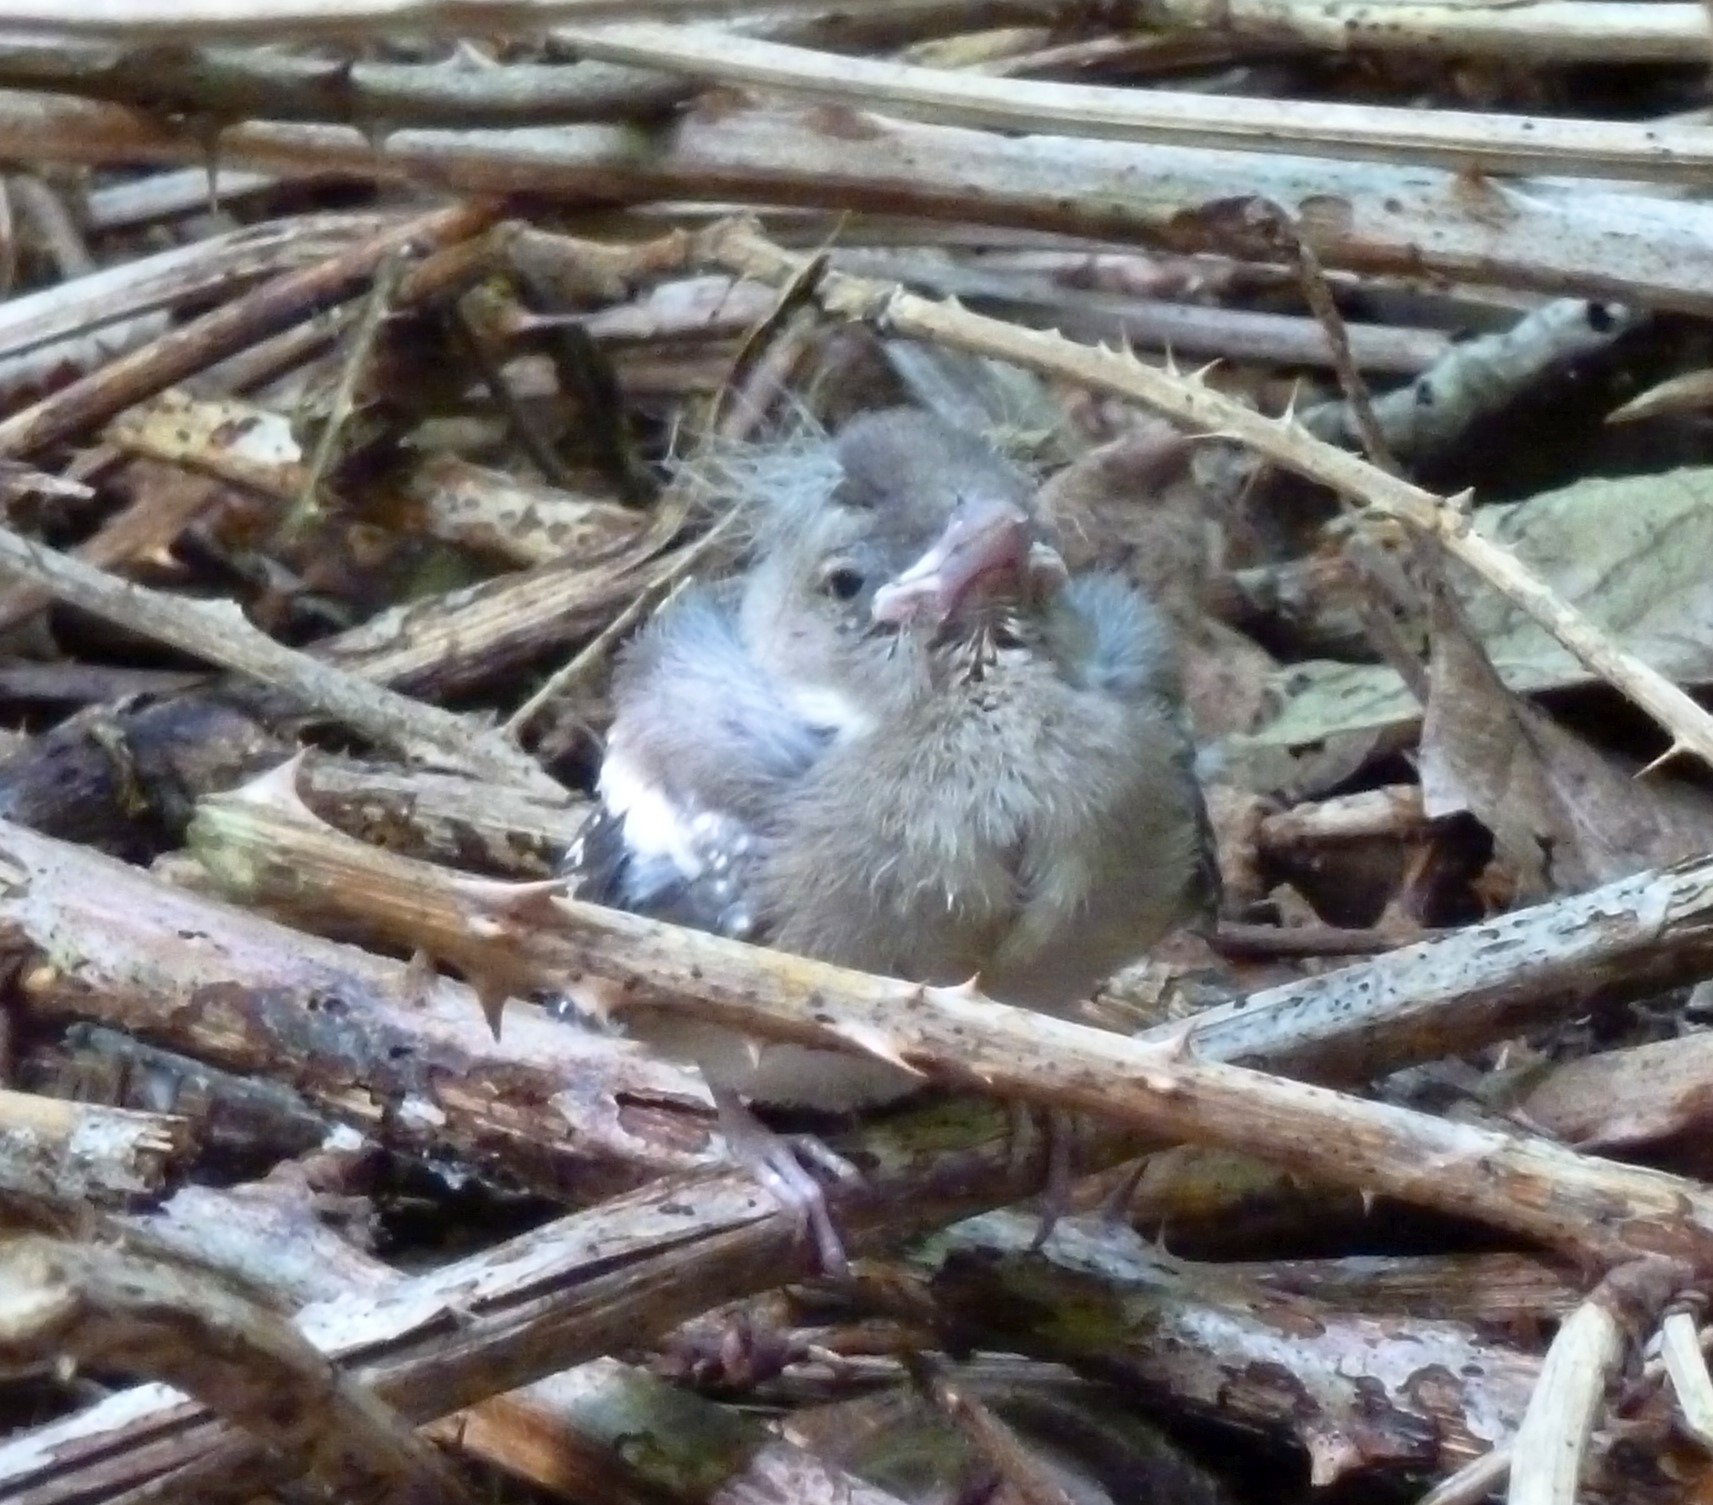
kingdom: Animalia
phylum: Chordata
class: Aves
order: Passeriformes
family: Fringillidae
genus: Fringilla
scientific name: Fringilla coelebs
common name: Common chaffinch
